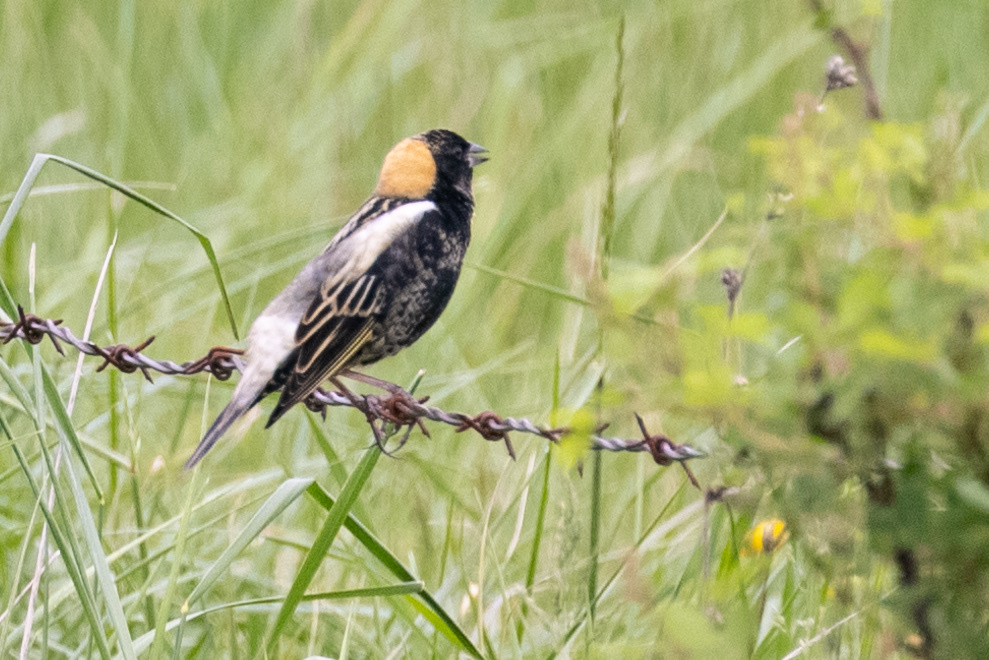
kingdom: Animalia
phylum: Chordata
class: Aves
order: Passeriformes
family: Icteridae
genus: Dolichonyx
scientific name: Dolichonyx oryzivorus
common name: Bobolink
